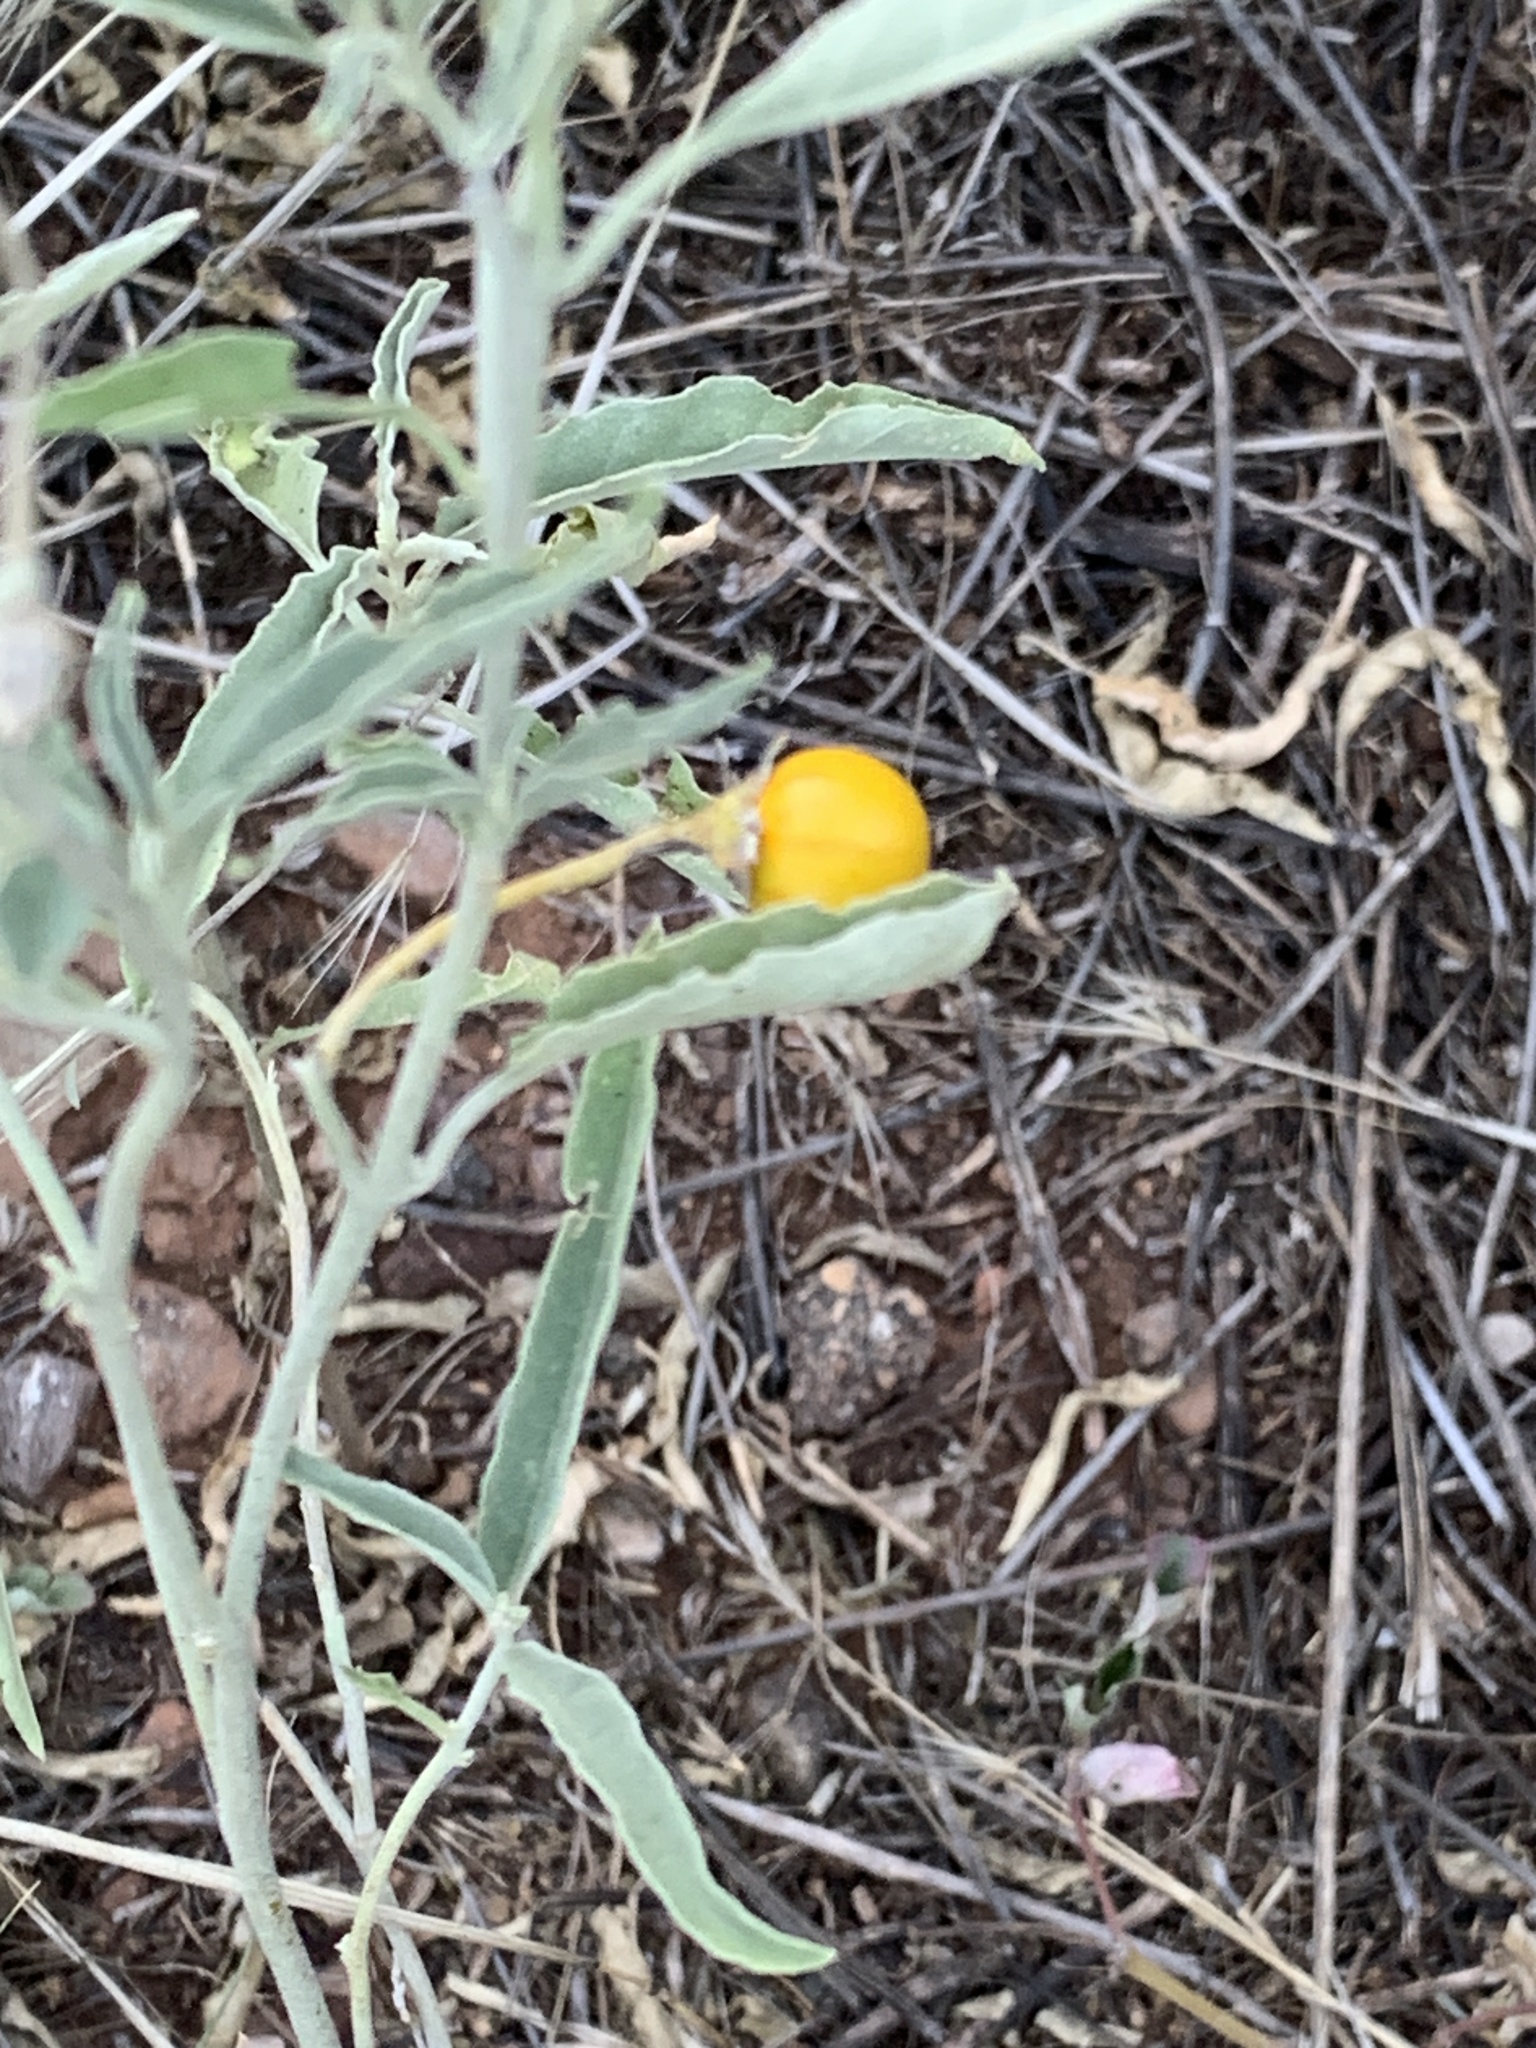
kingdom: Plantae
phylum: Tracheophyta
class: Magnoliopsida
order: Solanales
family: Solanaceae
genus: Solanum
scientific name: Solanum elaeagnifolium
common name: Silverleaf nightshade
